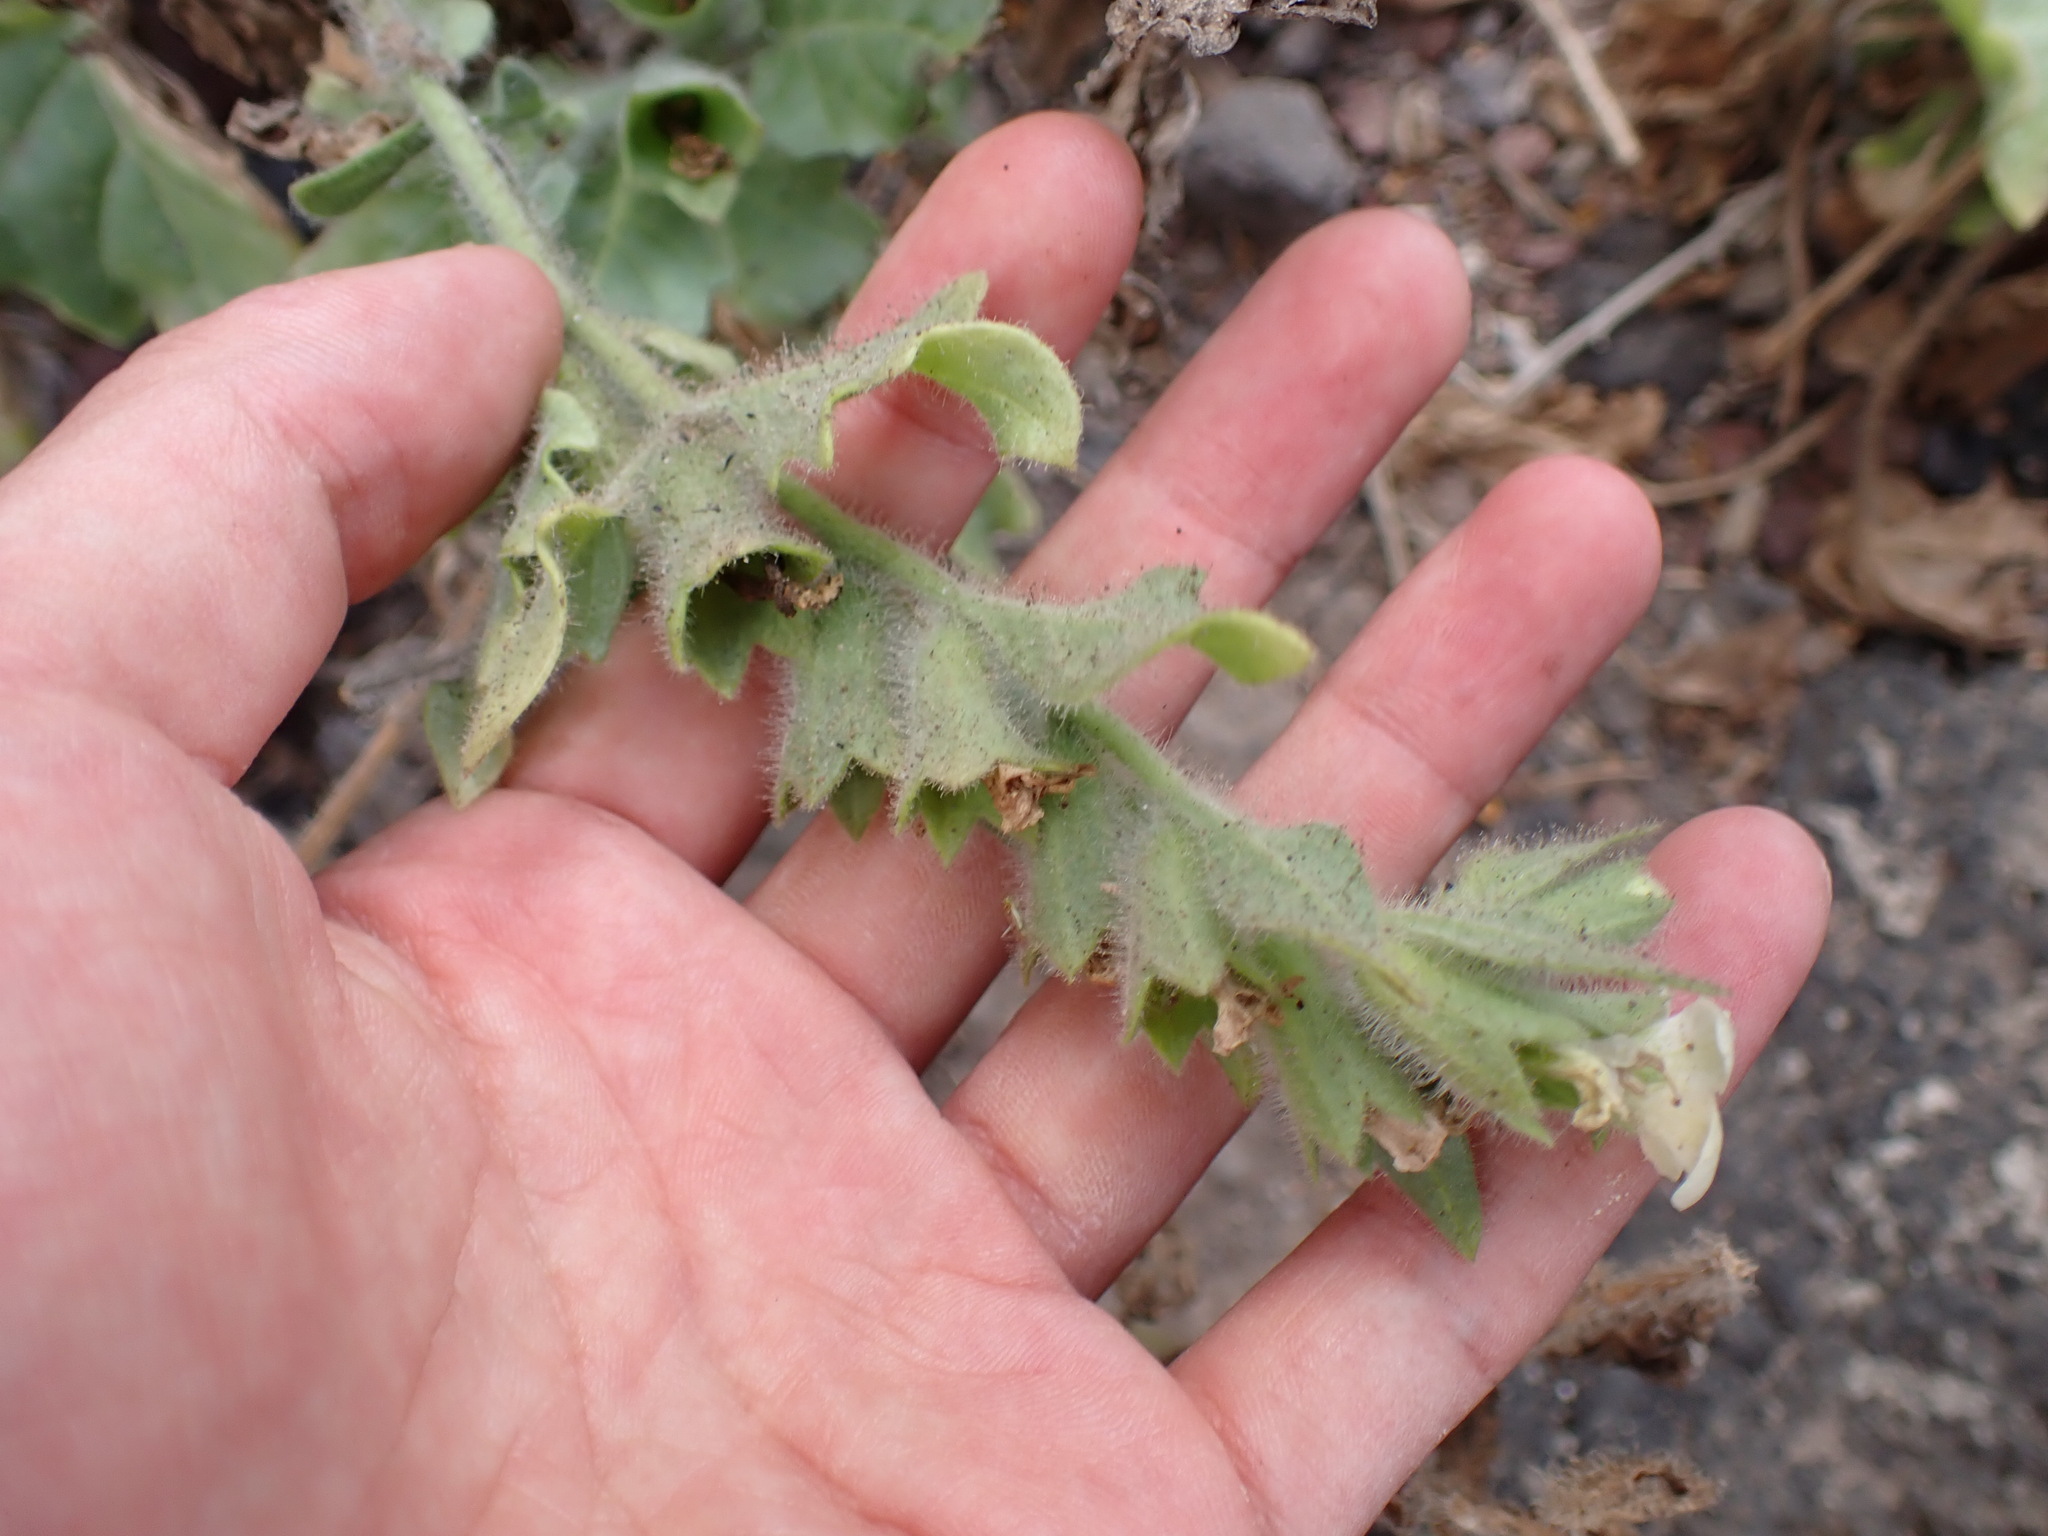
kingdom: Plantae
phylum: Tracheophyta
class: Magnoliopsida
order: Solanales
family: Solanaceae
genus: Hyoscyamus
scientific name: Hyoscyamus albus
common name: White henbane
